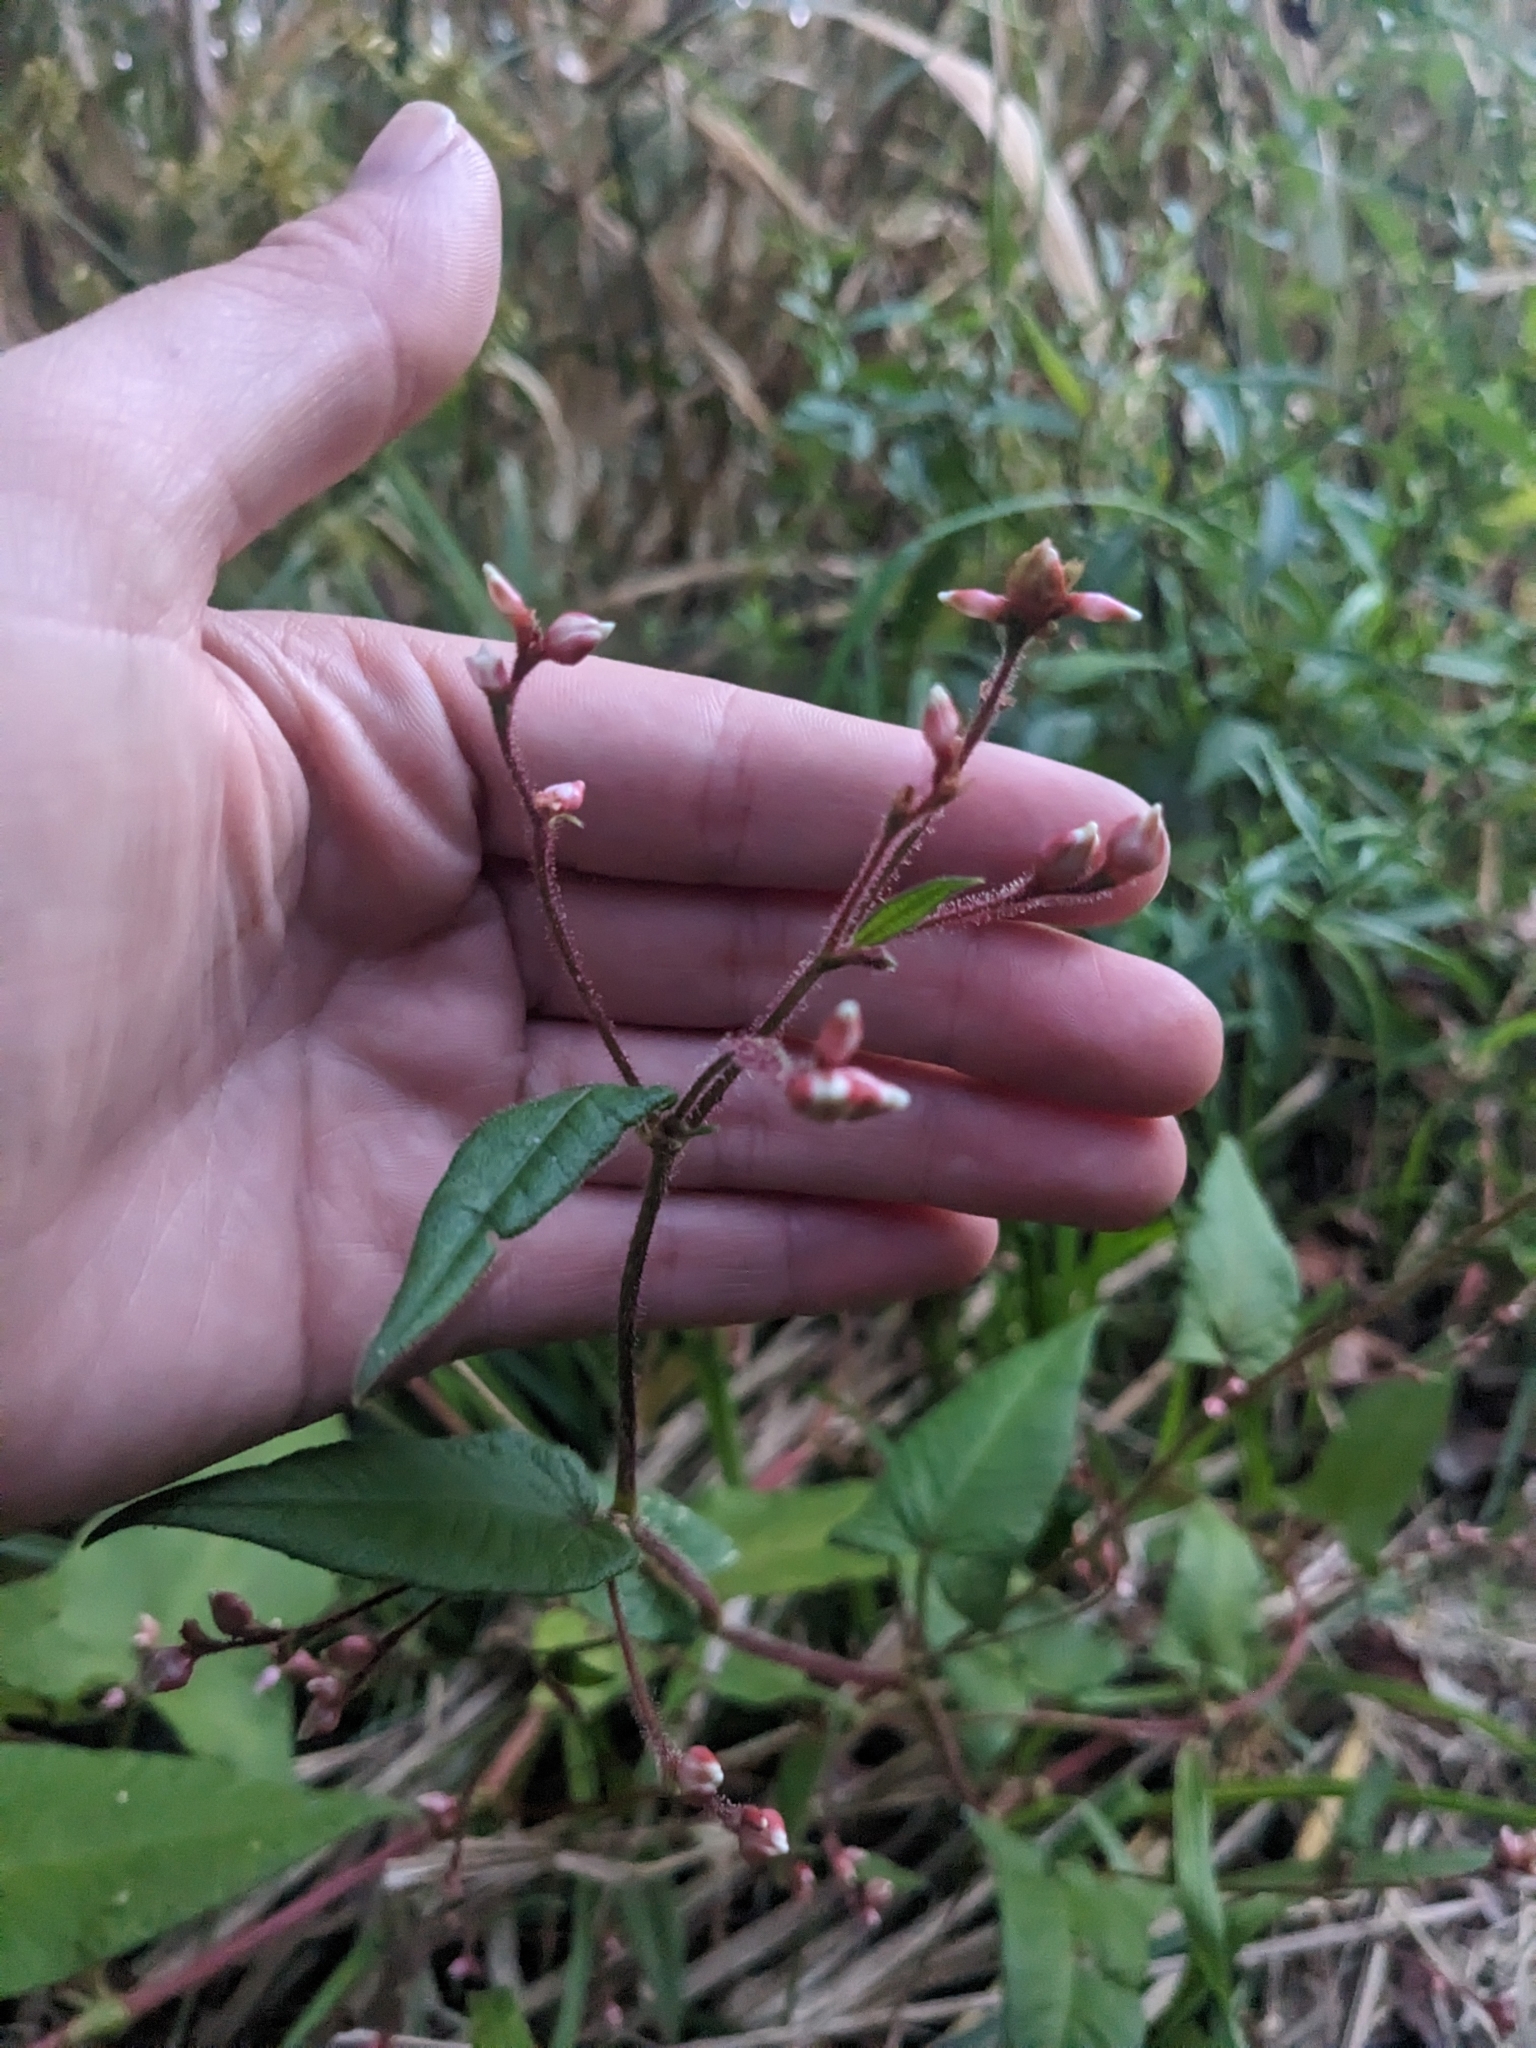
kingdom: Plantae
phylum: Tracheophyta
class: Magnoliopsida
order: Caryophyllales
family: Polygonaceae
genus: Persicaria
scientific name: Persicaria arifolia
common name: Halberd-leaved tear-thumb
